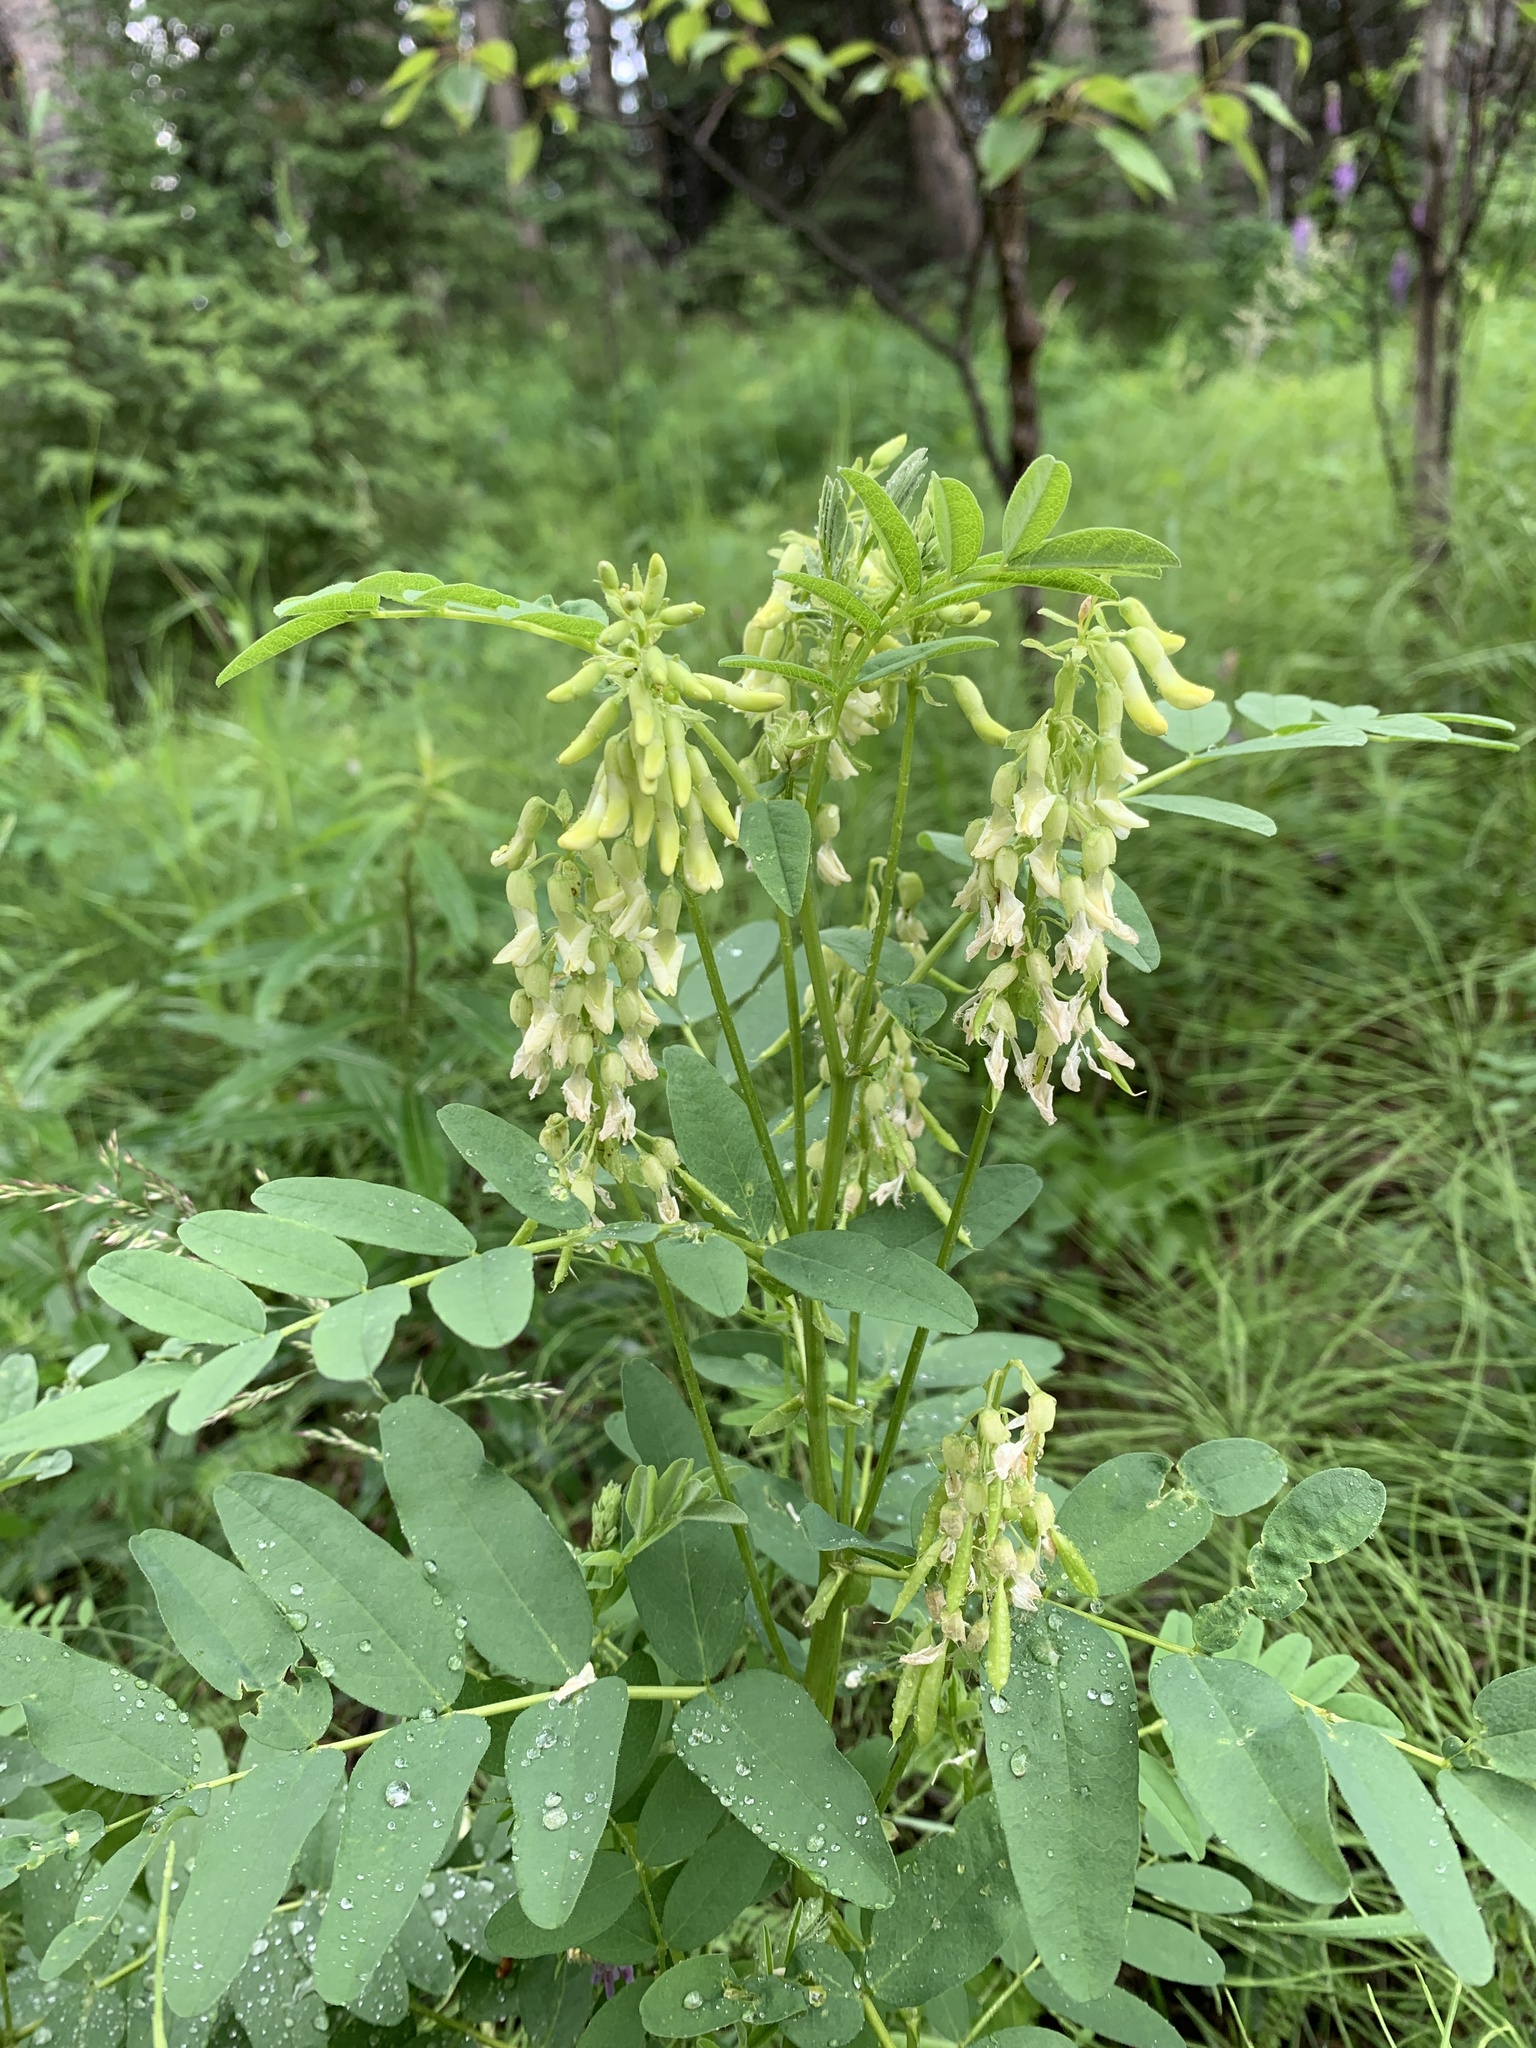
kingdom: Plantae
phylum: Tracheophyta
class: Magnoliopsida
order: Fabales
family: Fabaceae
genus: Astragalus
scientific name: Astragalus americanus
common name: American milk-vetch
